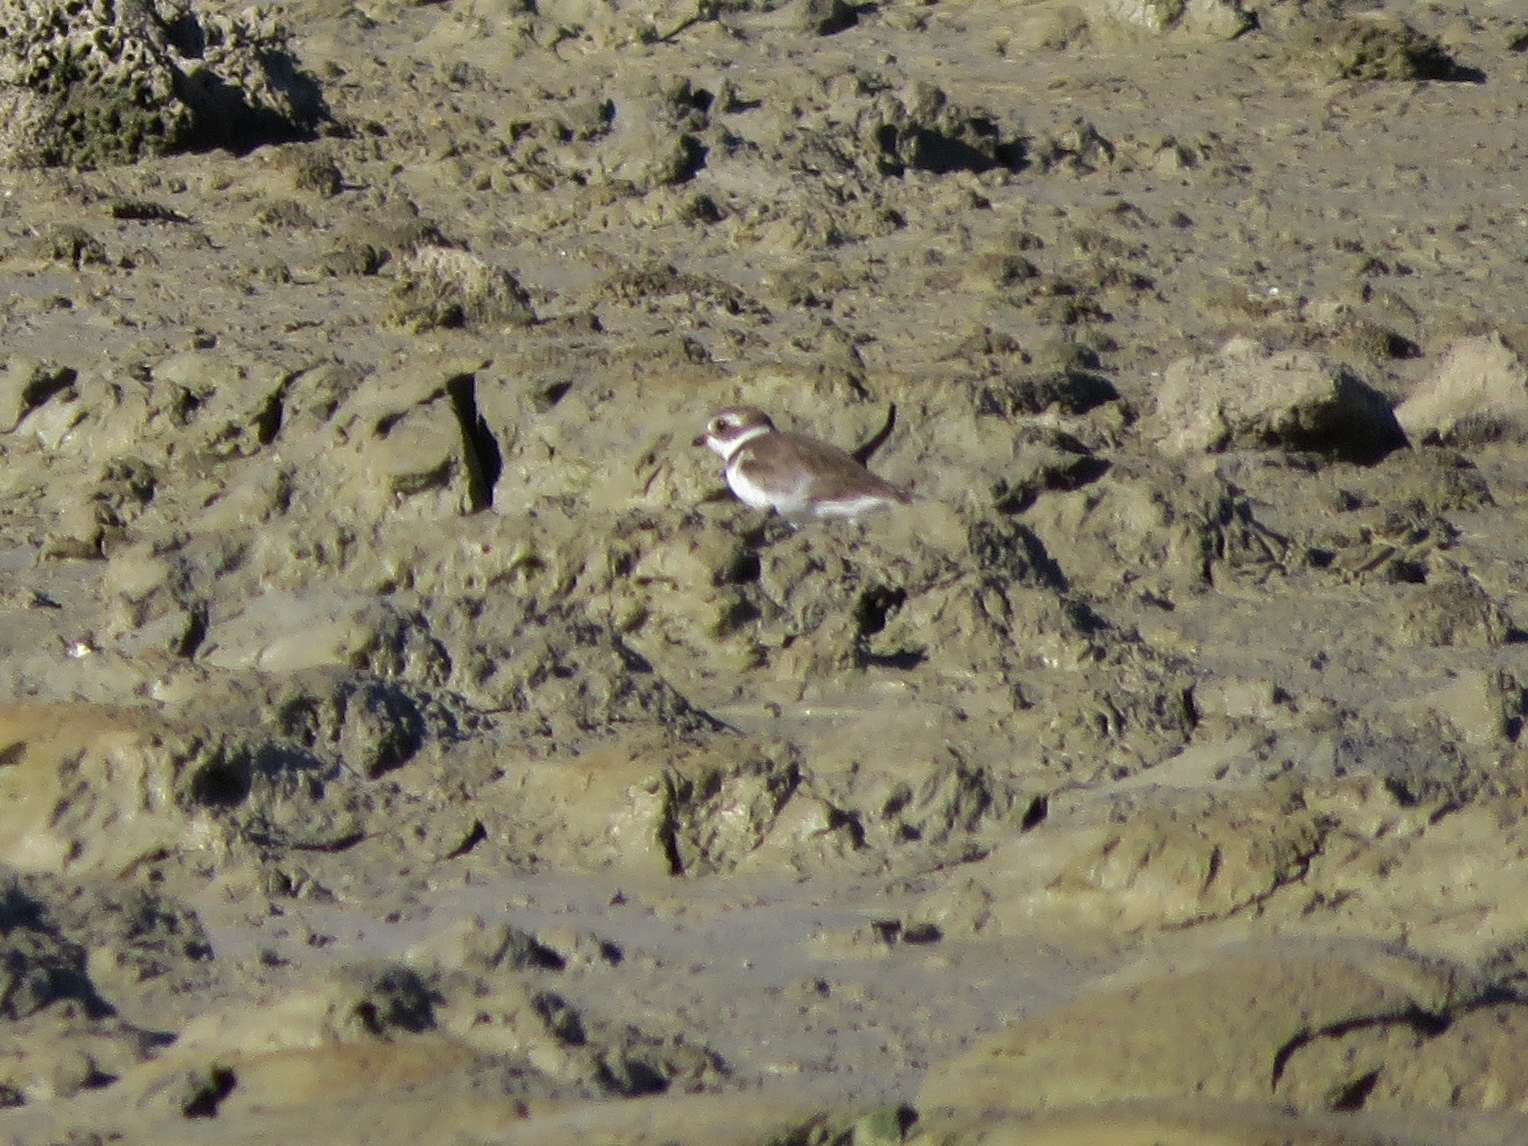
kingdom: Animalia
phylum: Chordata
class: Aves
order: Charadriiformes
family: Charadriidae
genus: Charadrius
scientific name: Charadrius semipalmatus
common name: Semipalmated plover
